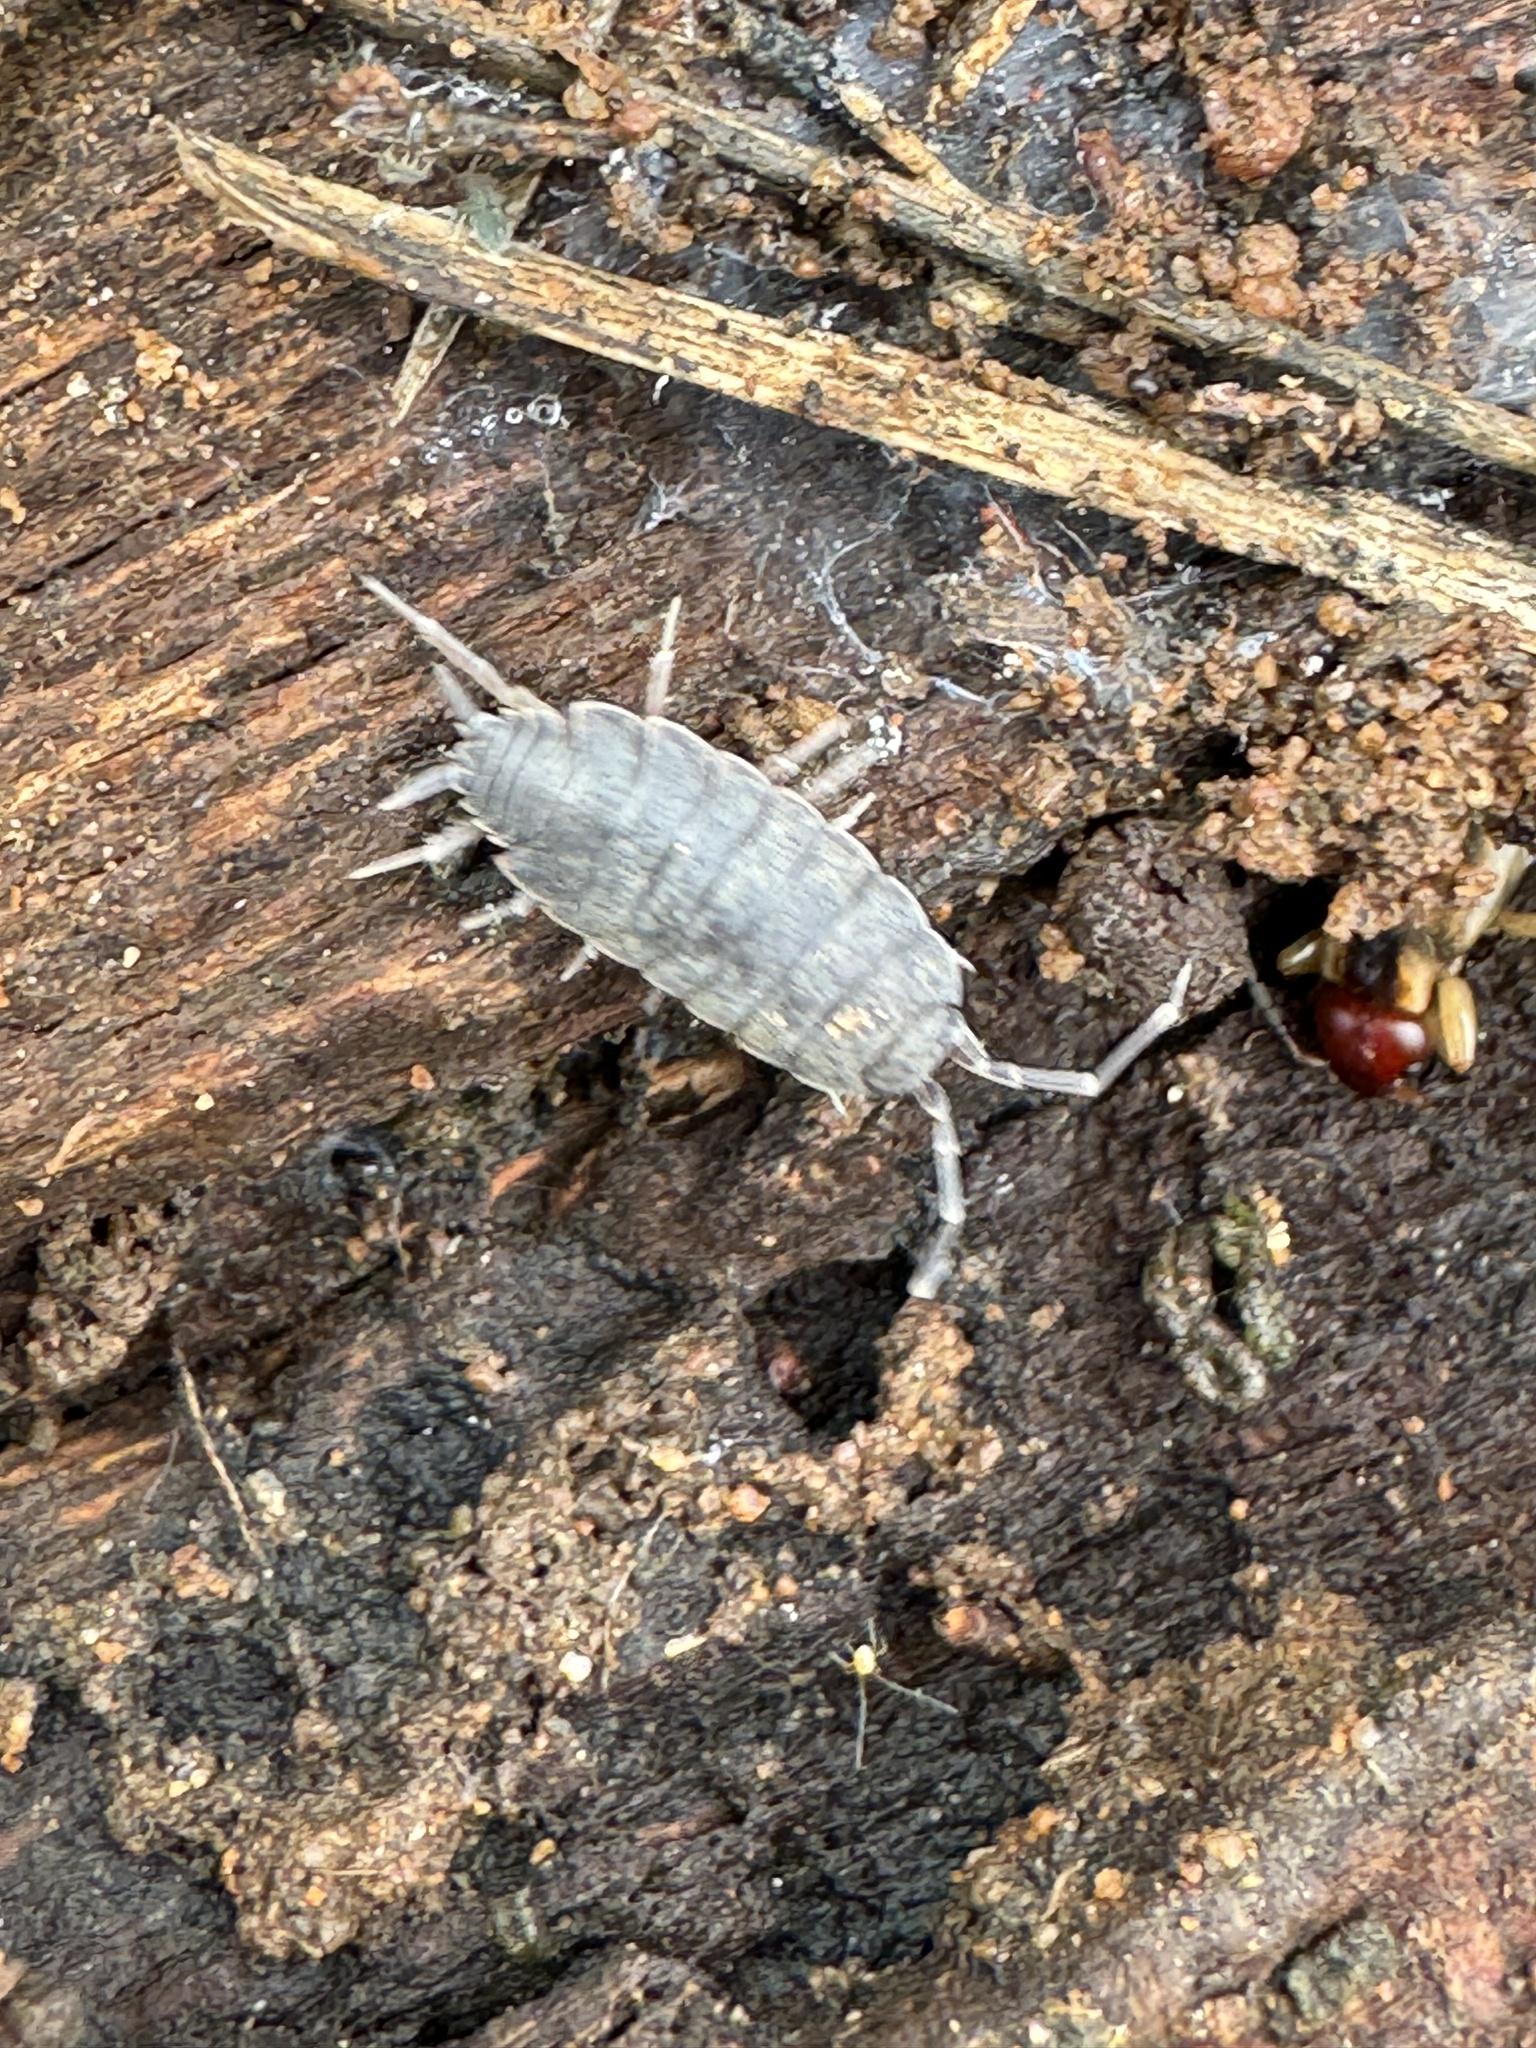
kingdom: Animalia
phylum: Arthropoda
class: Malacostraca
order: Isopoda
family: Porcellionidae
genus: Porcellionides
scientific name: Porcellionides
